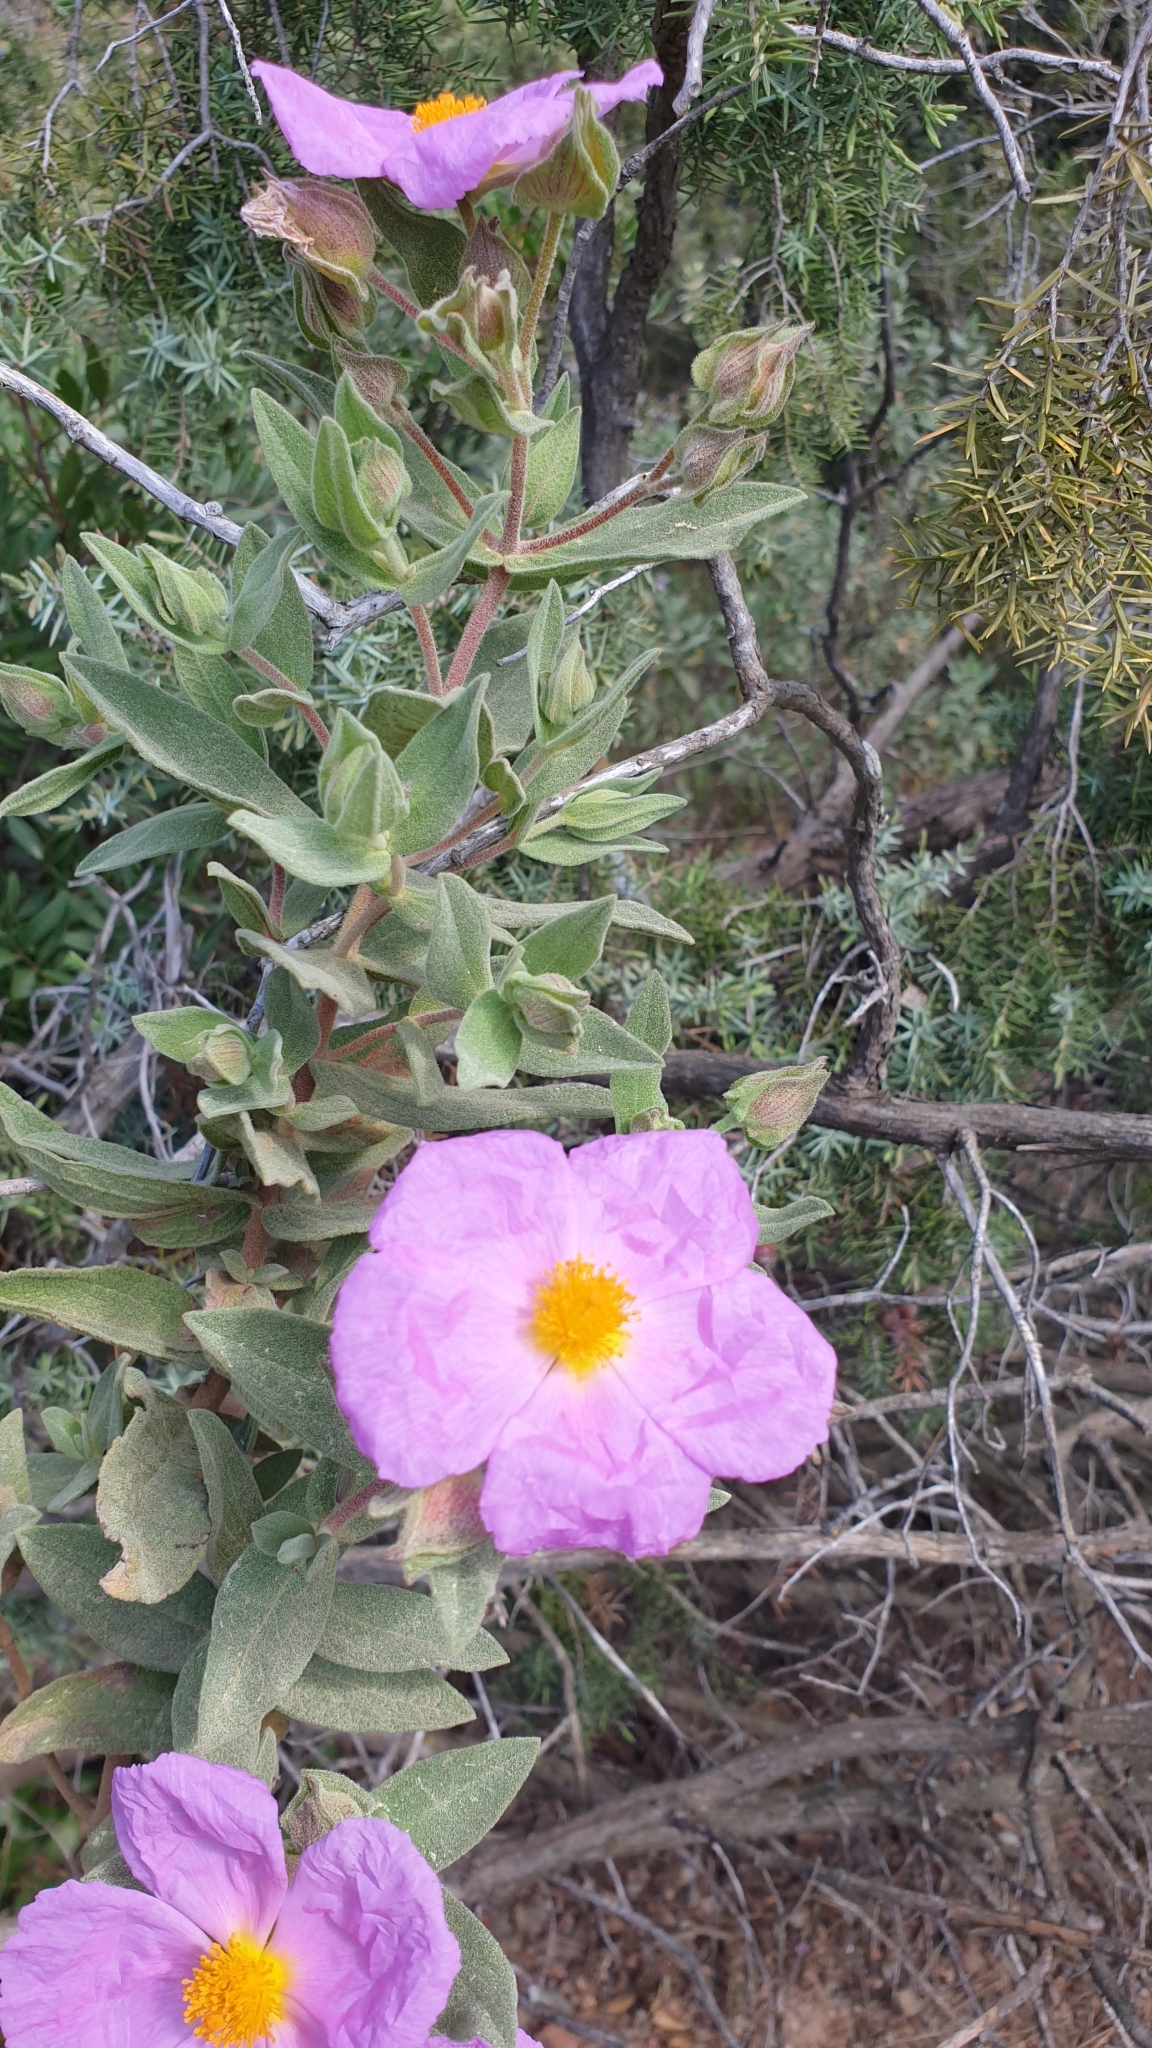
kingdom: Plantae
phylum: Tracheophyta
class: Magnoliopsida
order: Malvales
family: Cistaceae
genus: Cistus
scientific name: Cistus albidus
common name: White-leaf rock-rose
